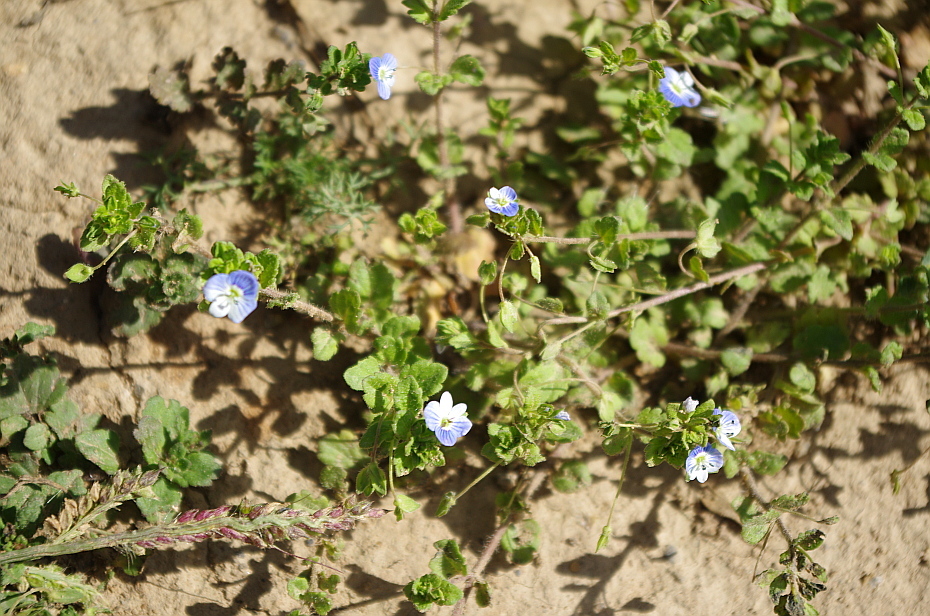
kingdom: Plantae
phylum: Tracheophyta
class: Magnoliopsida
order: Lamiales
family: Plantaginaceae
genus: Veronica
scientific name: Veronica persica
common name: Common field-speedwell
